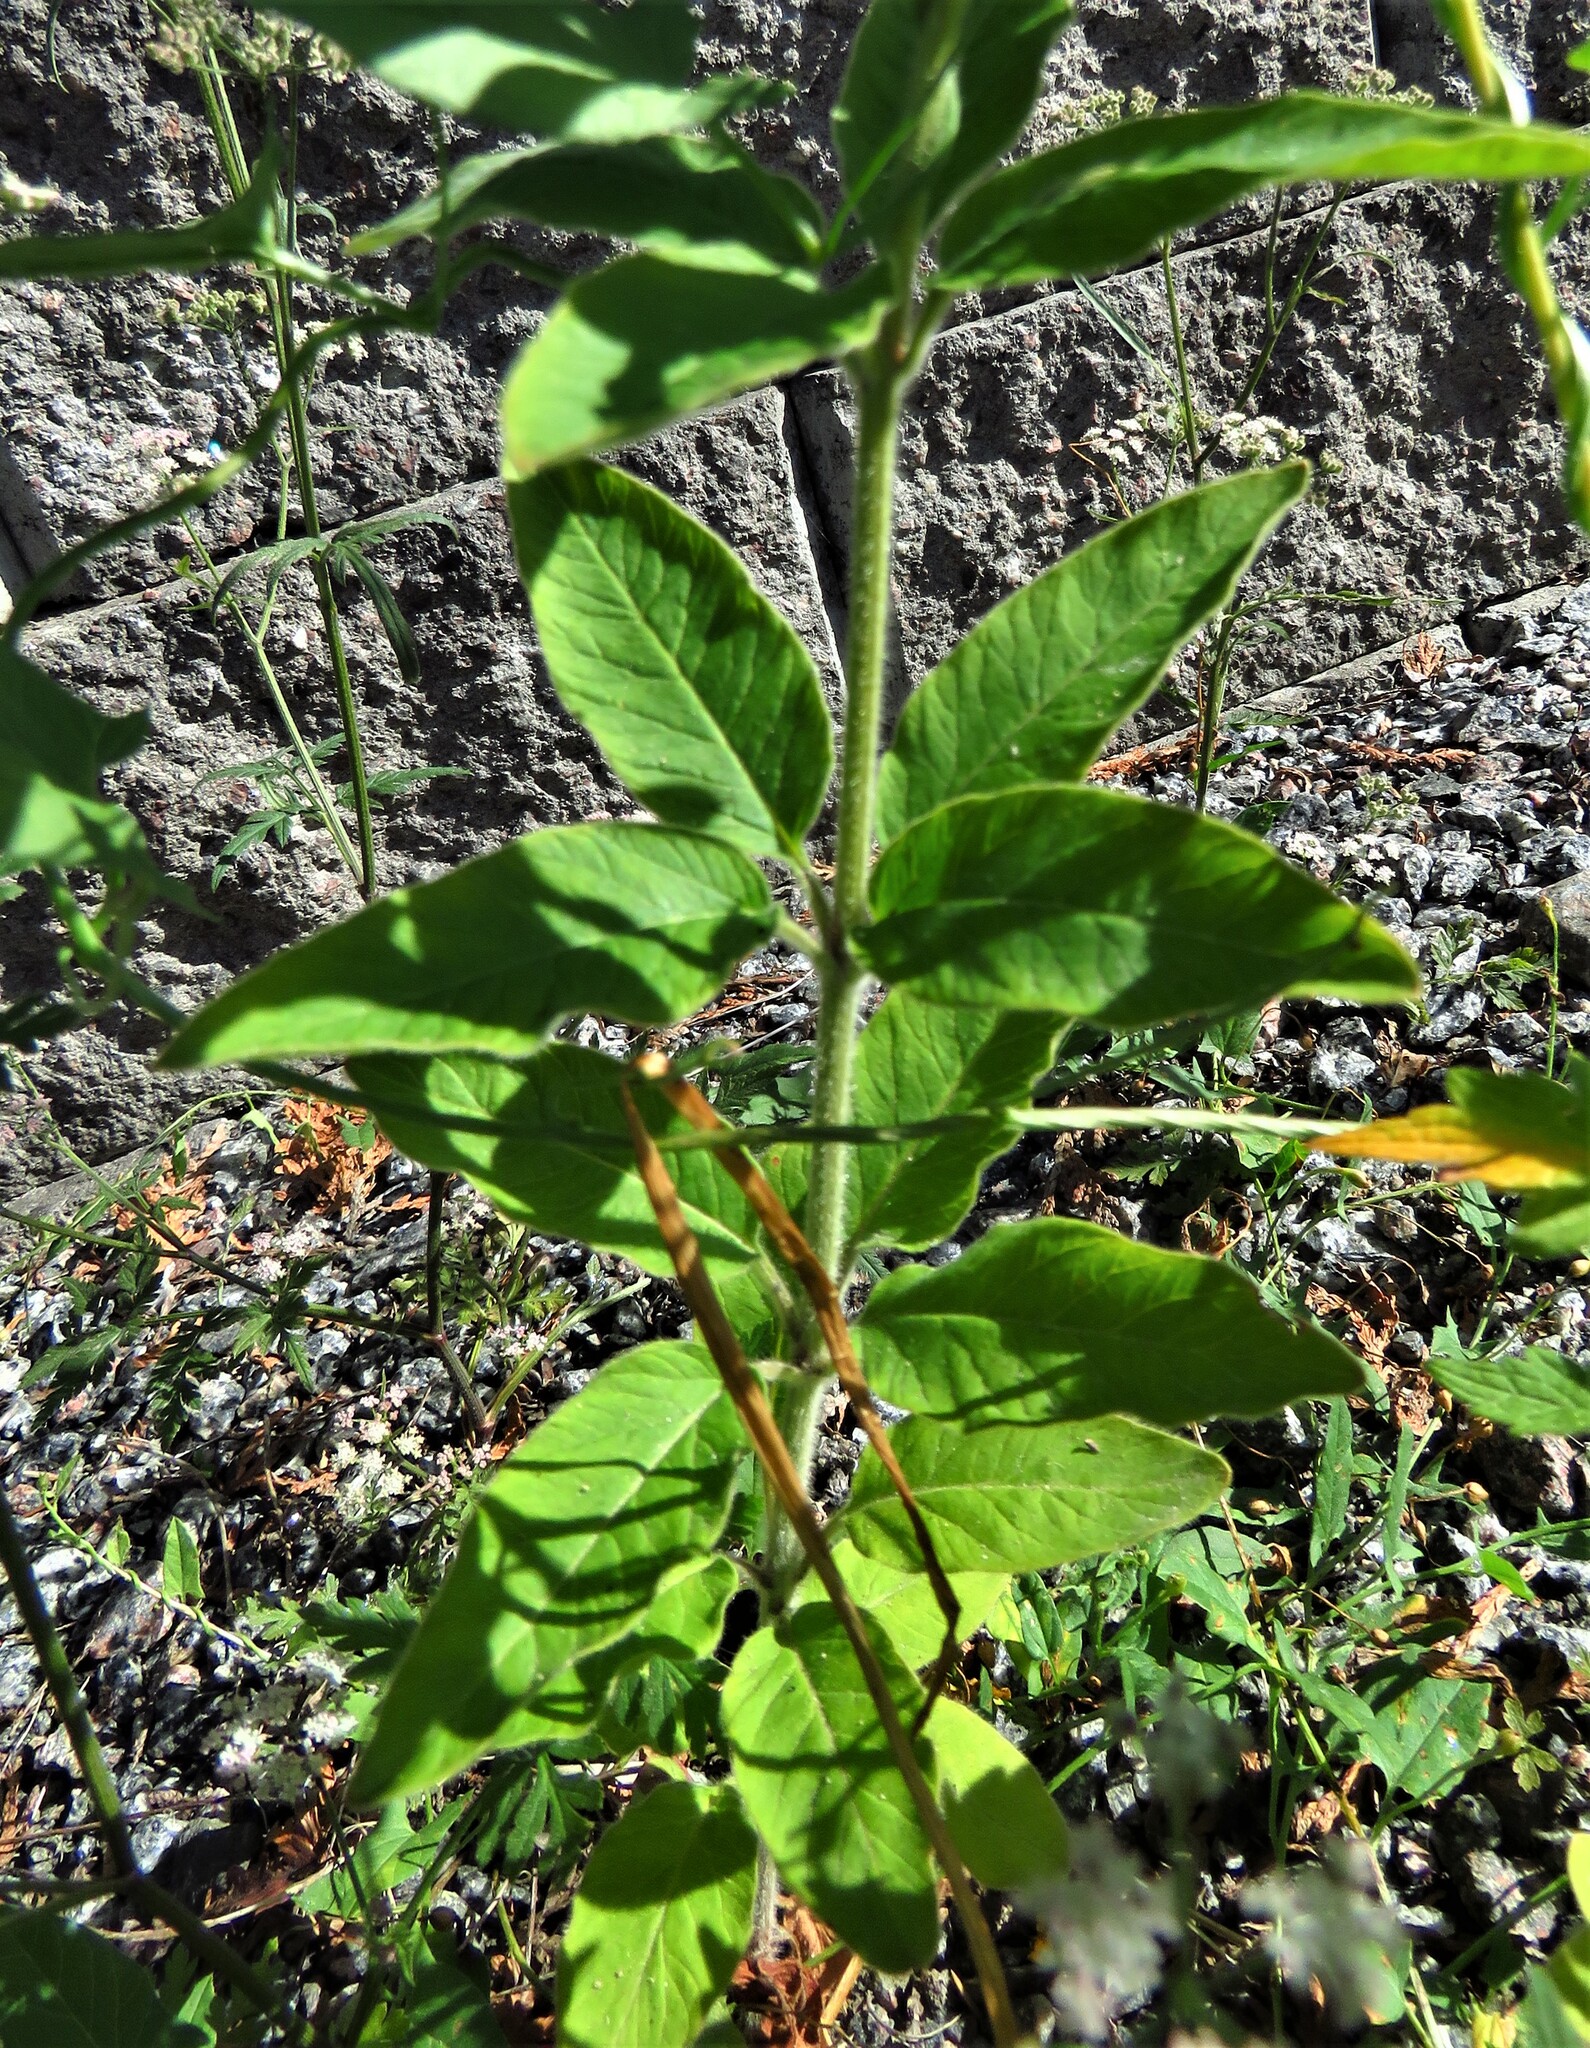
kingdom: Plantae
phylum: Tracheophyta
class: Magnoliopsida
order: Ericales
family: Primulaceae
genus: Lysimachia
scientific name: Lysimachia vulgaris
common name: Yellow loosestrife
